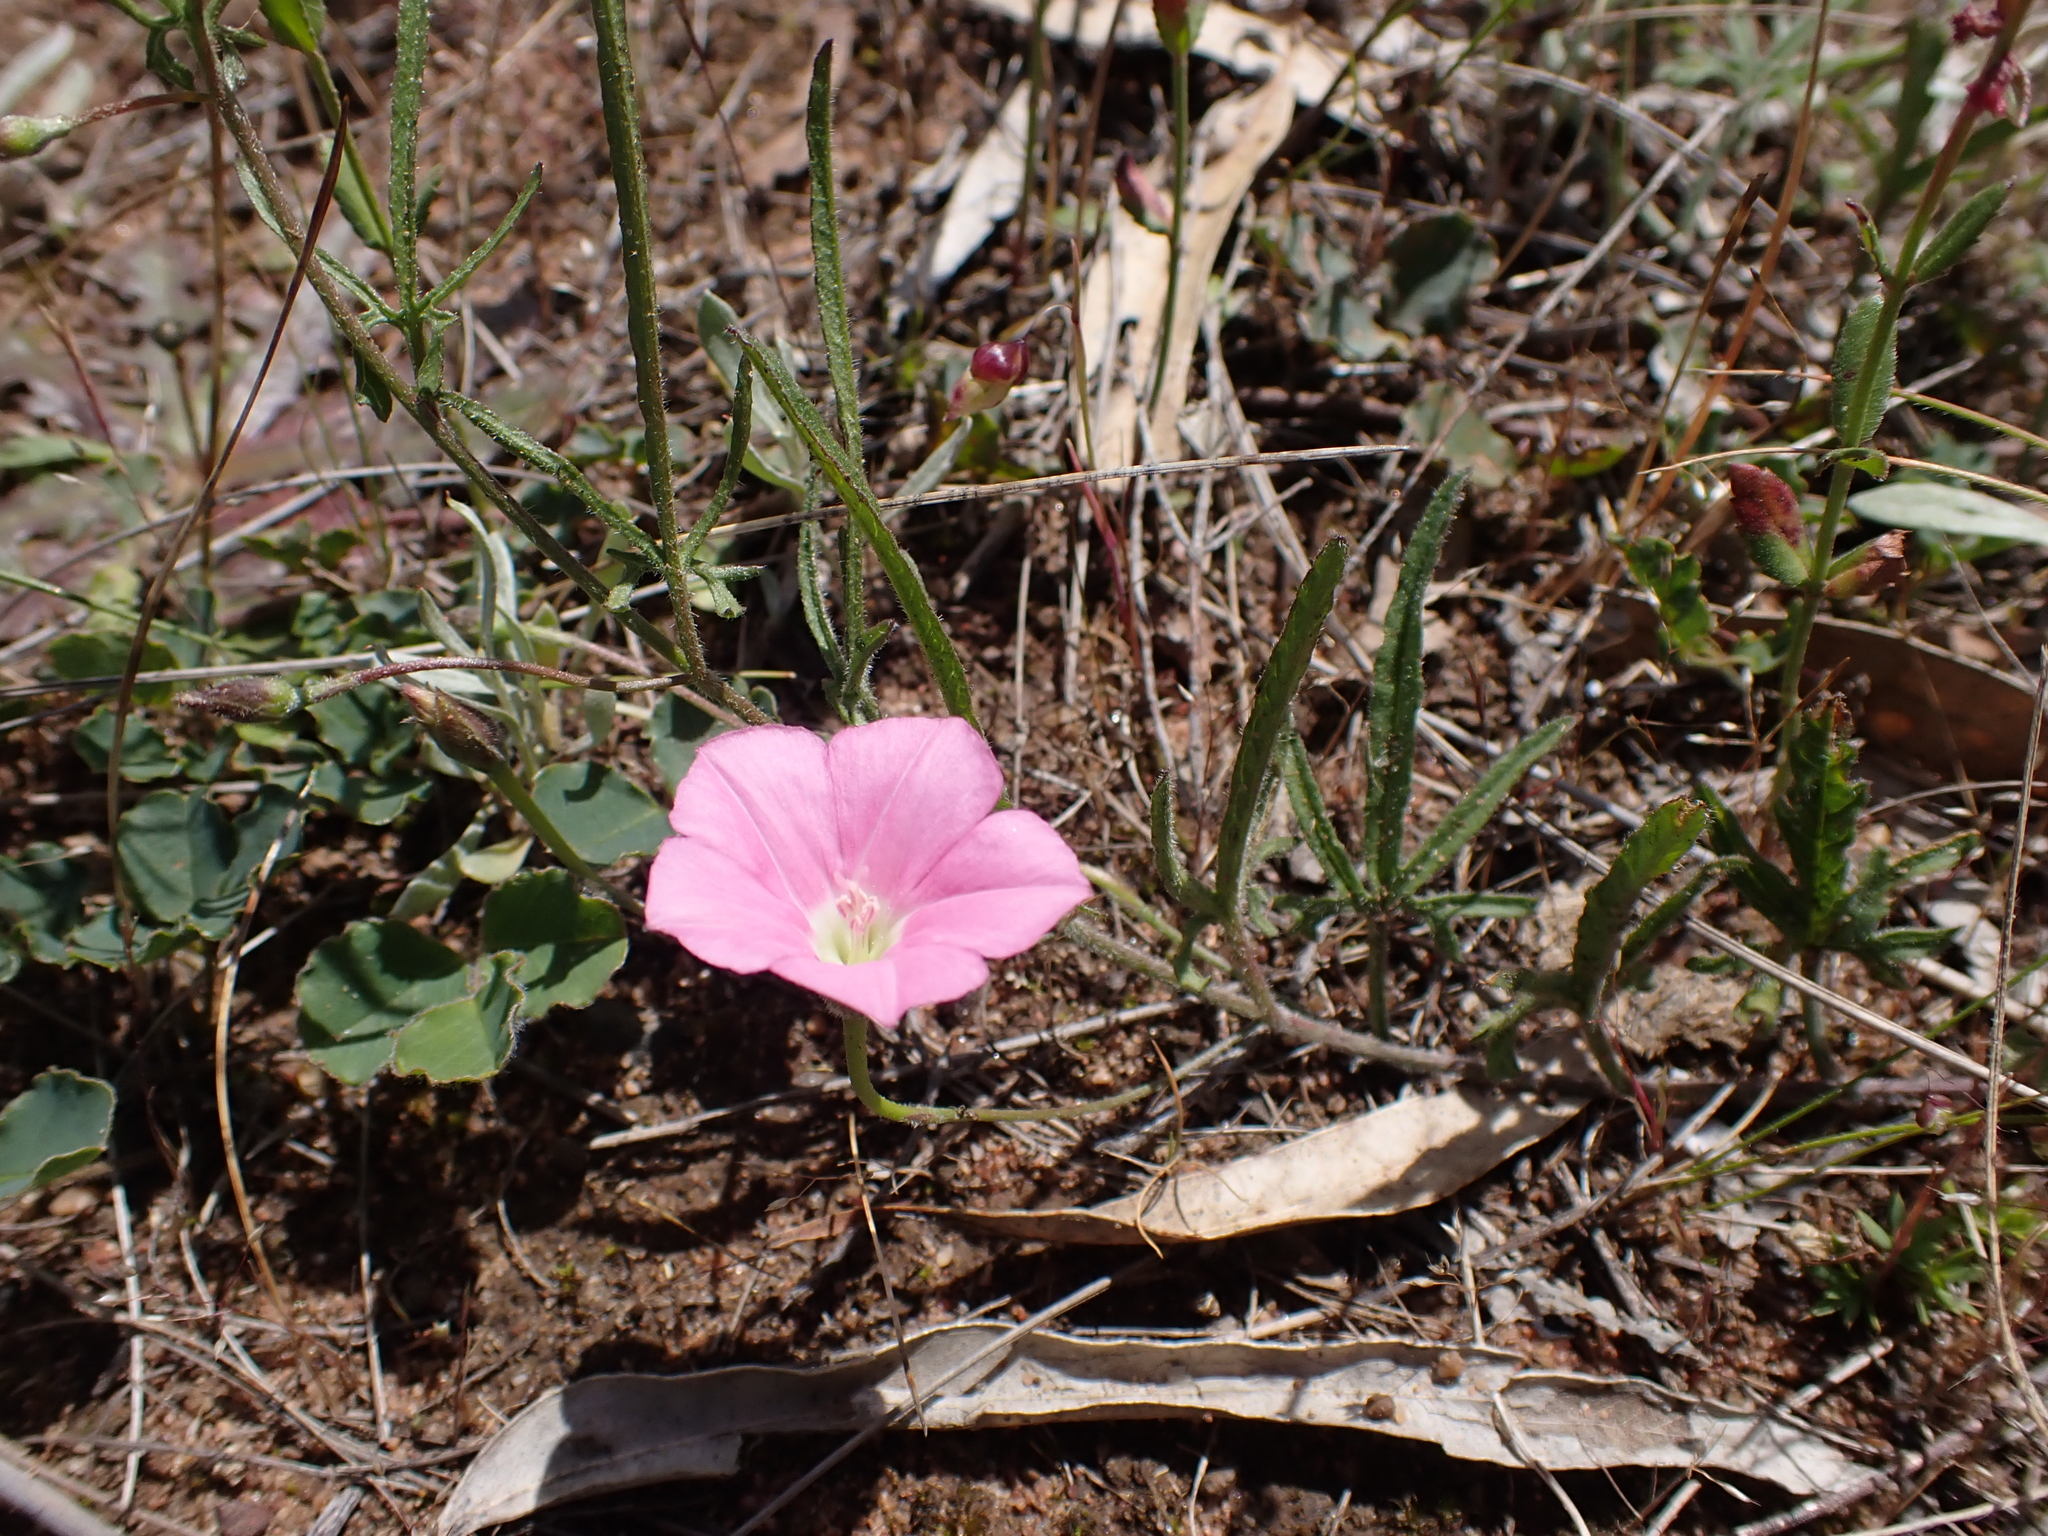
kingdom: Plantae
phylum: Tracheophyta
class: Magnoliopsida
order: Solanales
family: Convolvulaceae
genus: Convolvulus
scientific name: Convolvulus angustissimus
